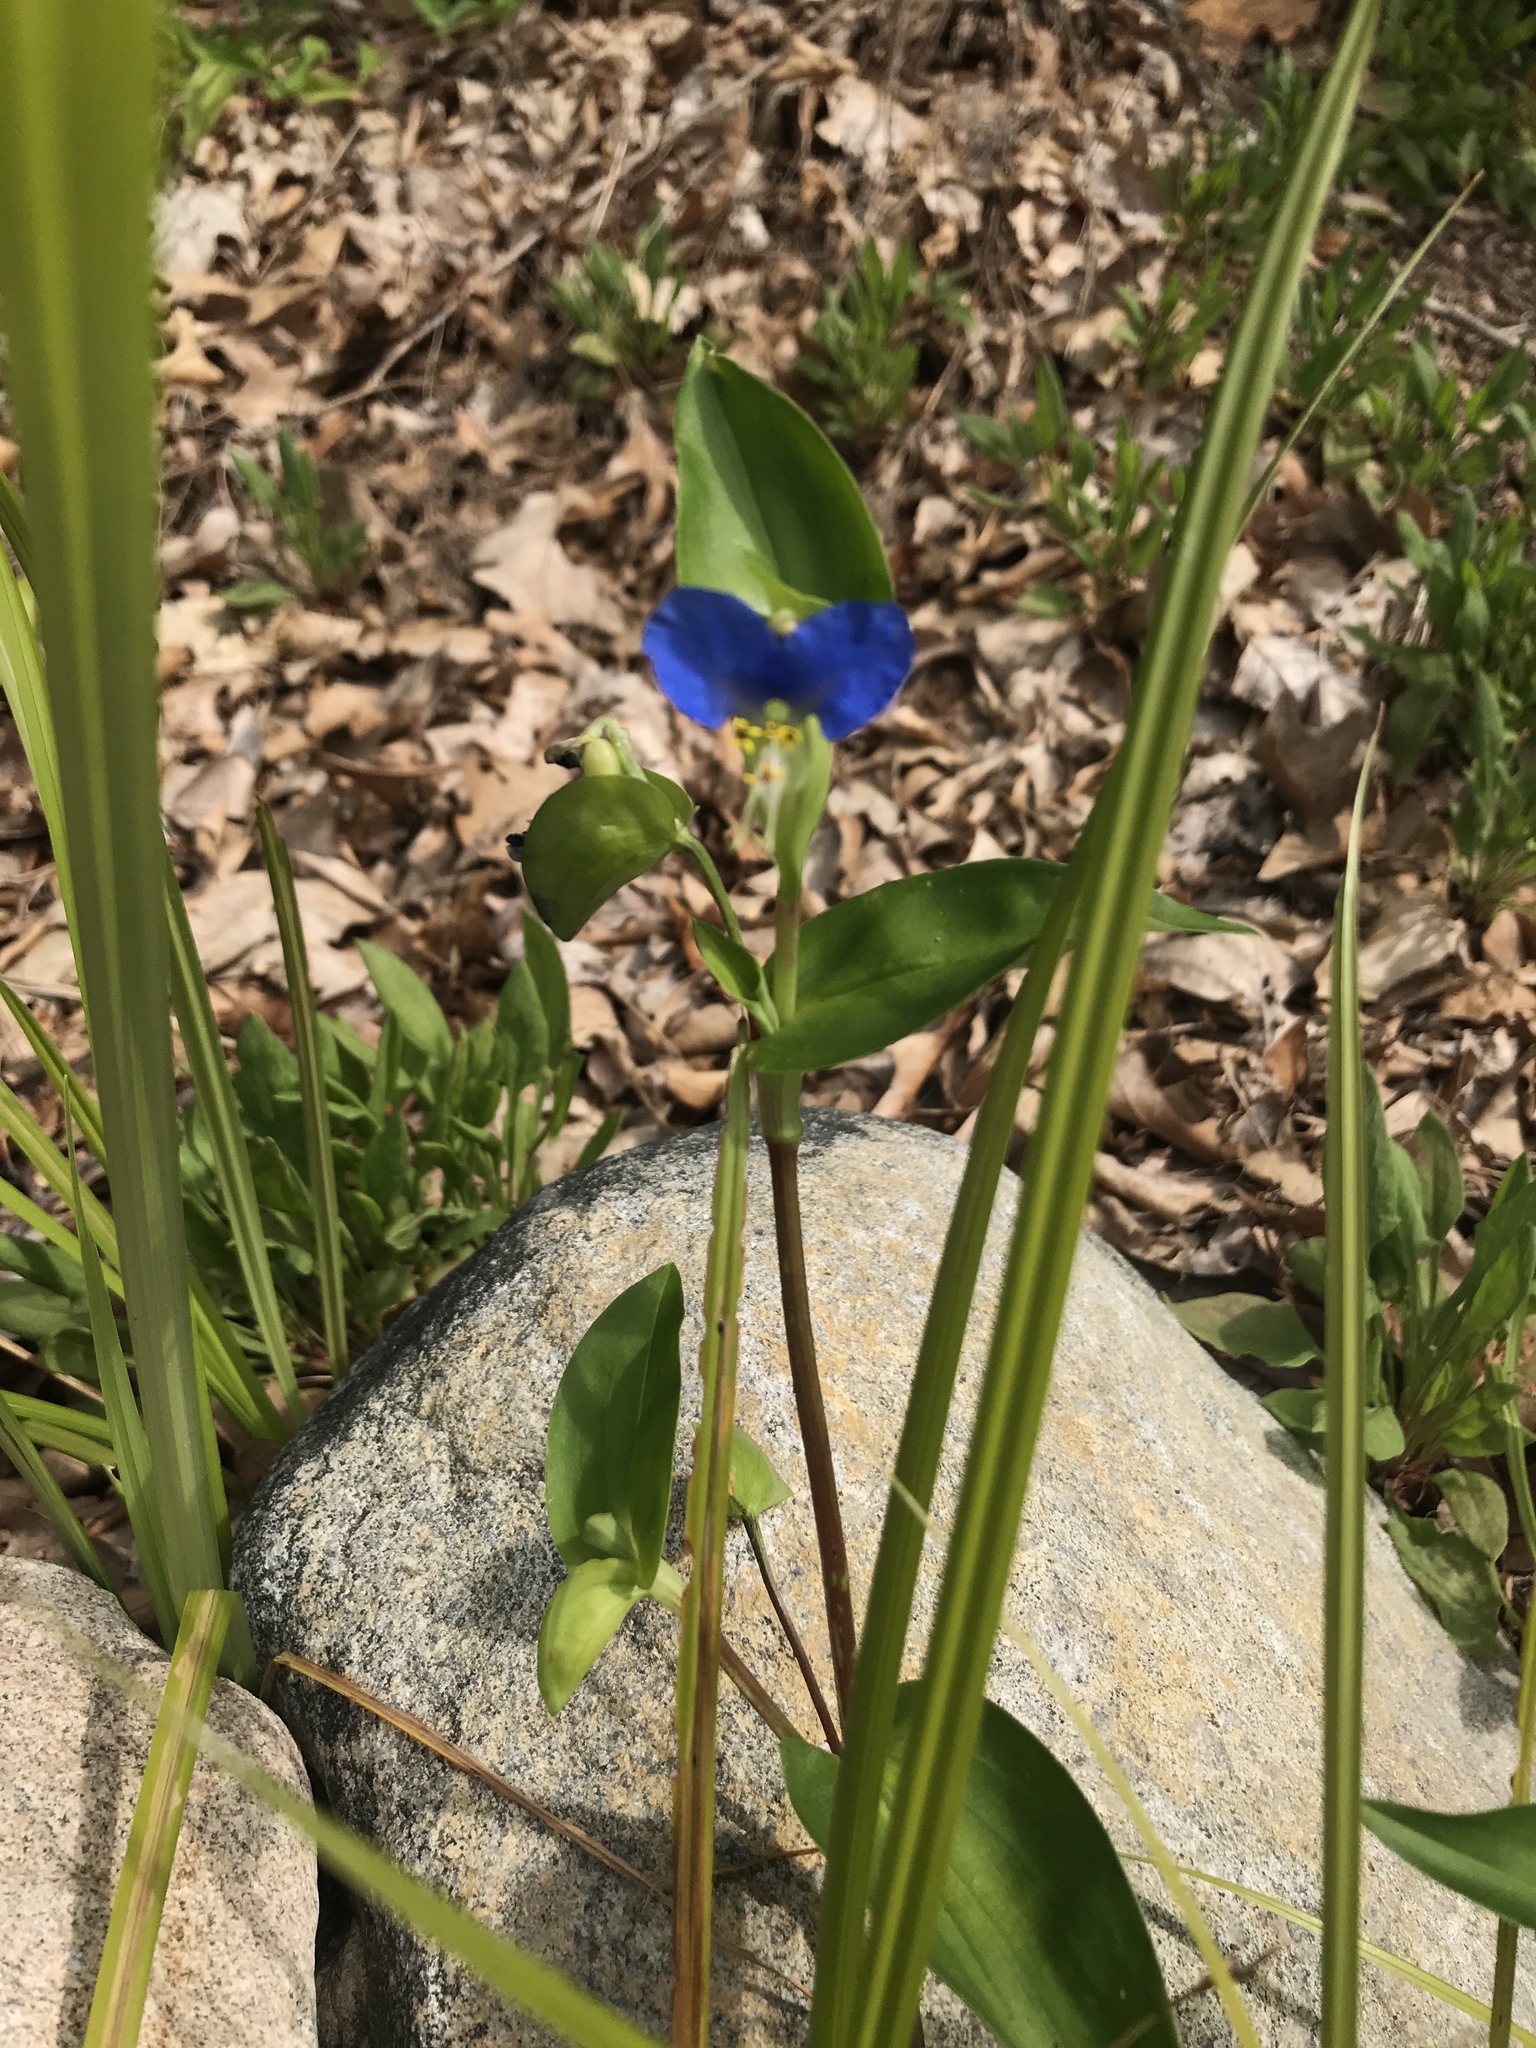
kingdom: Plantae
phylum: Tracheophyta
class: Liliopsida
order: Commelinales
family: Commelinaceae
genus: Commelina
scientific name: Commelina communis
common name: Asiatic dayflower
